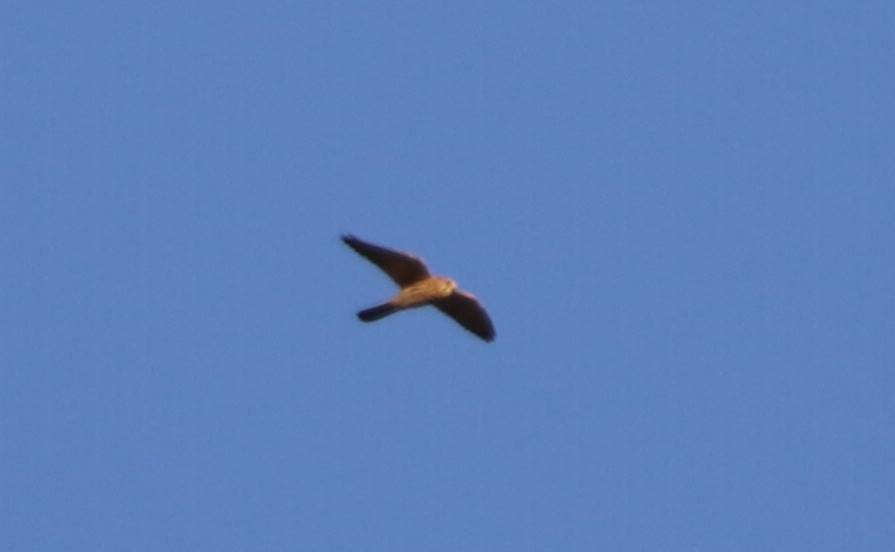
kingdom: Animalia
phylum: Chordata
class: Aves
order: Falconiformes
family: Falconidae
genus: Falco
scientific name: Falco tinnunculus
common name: Common kestrel
